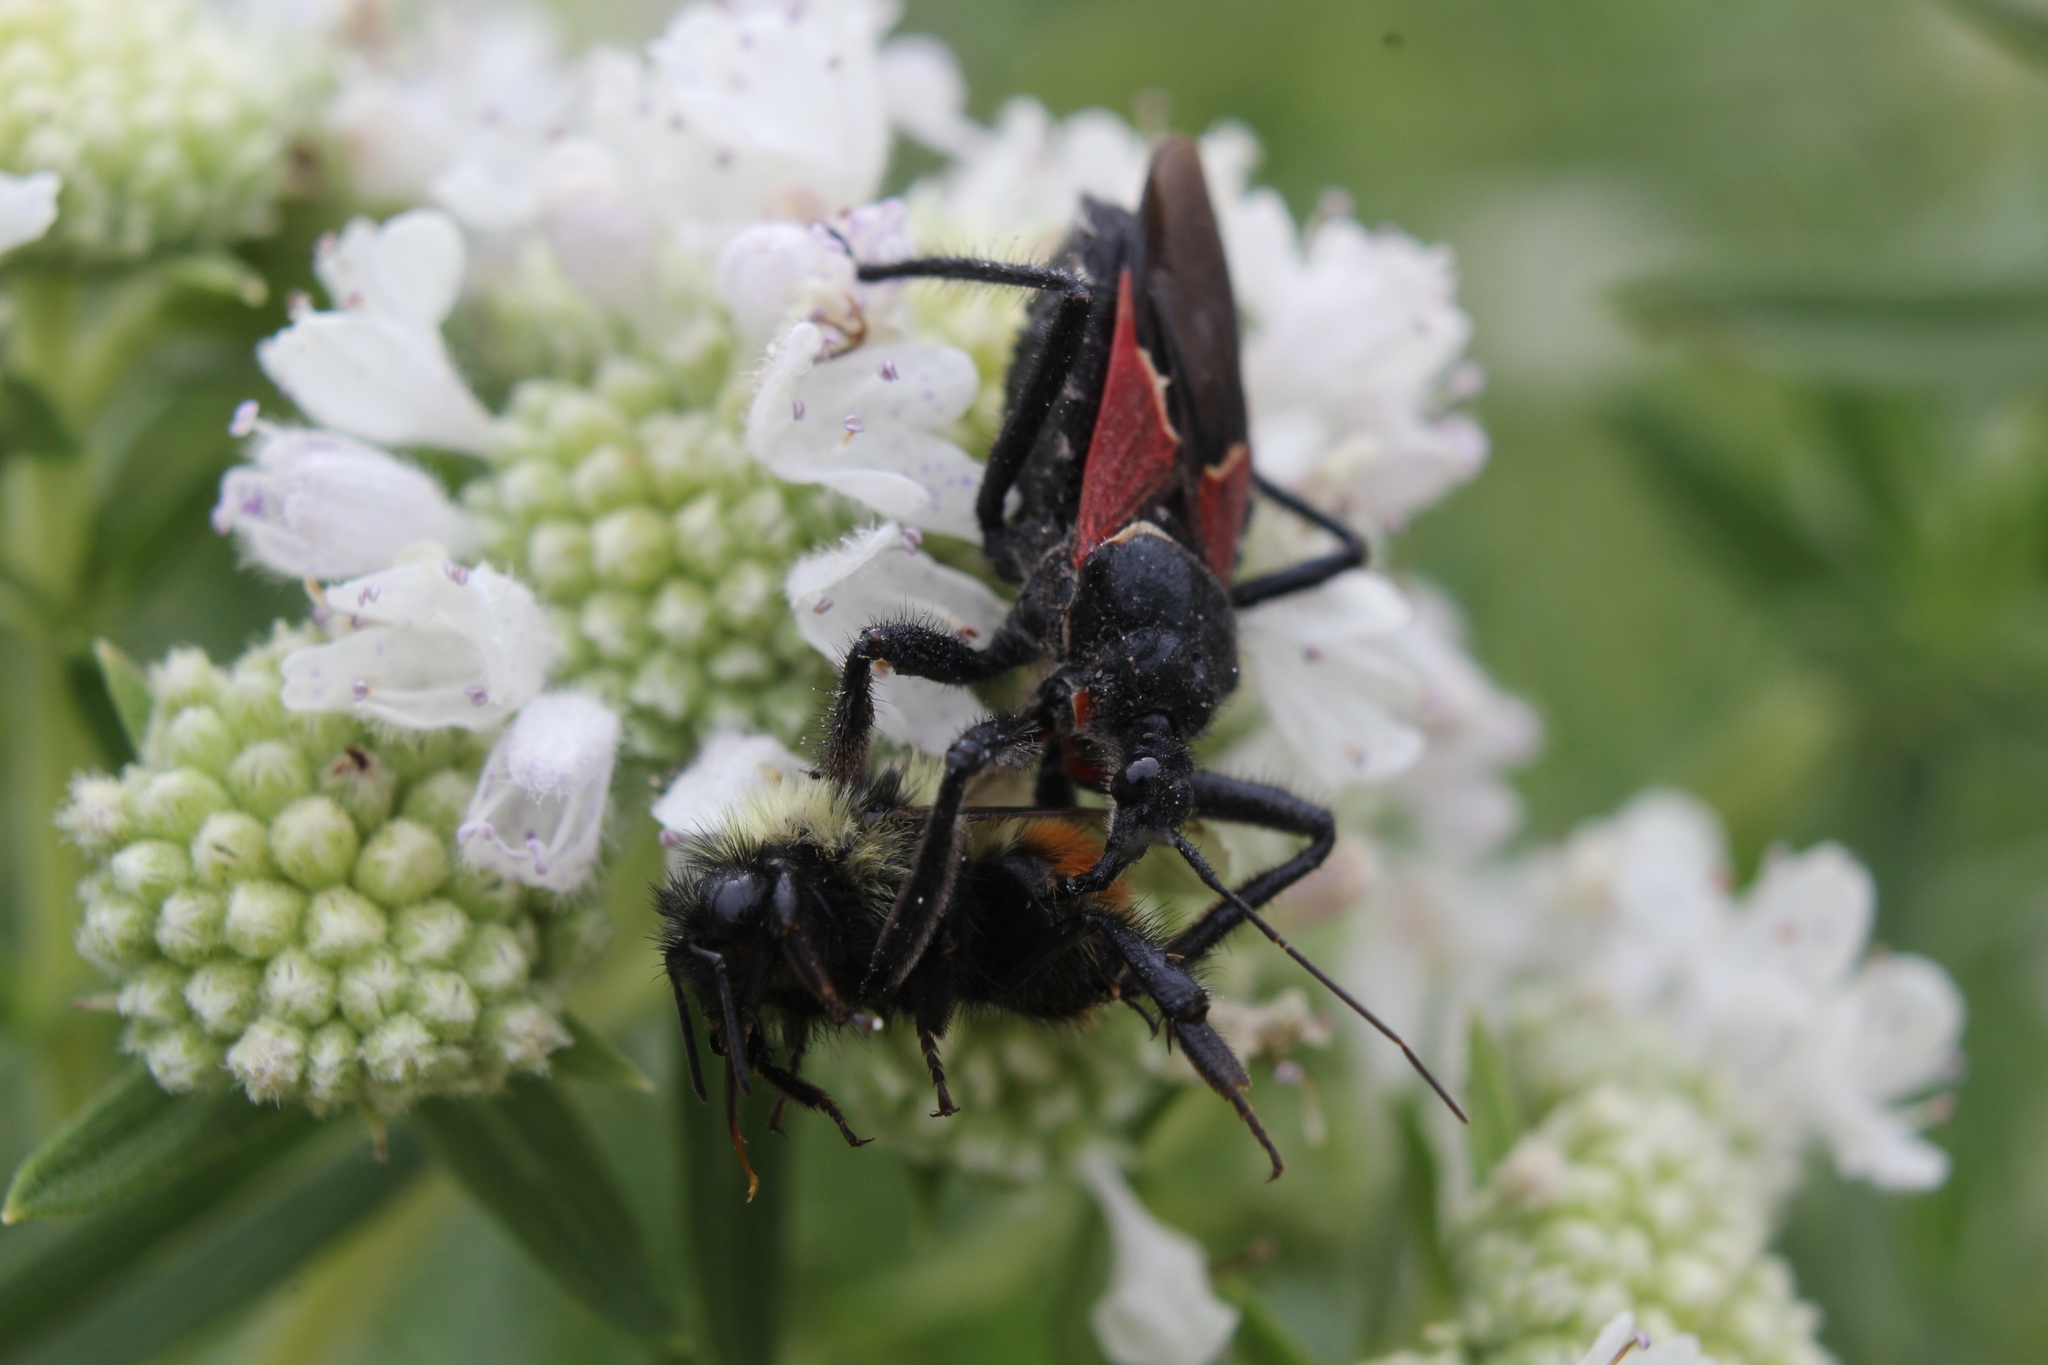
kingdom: Animalia
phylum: Arthropoda
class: Insecta
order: Hemiptera
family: Reduviidae
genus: Apiomerus
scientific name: Apiomerus montanus
